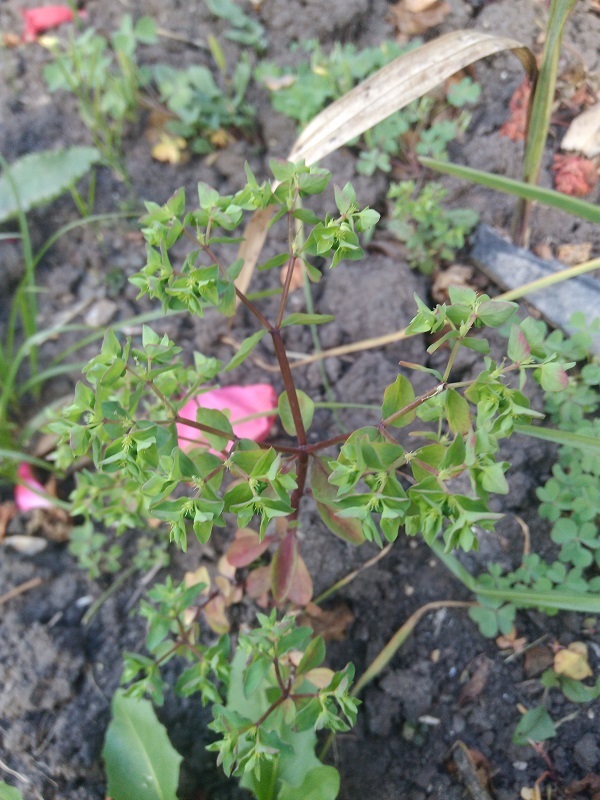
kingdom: Plantae
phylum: Tracheophyta
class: Magnoliopsida
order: Malpighiales
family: Euphorbiaceae
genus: Euphorbia
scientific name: Euphorbia peplus
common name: Petty spurge
